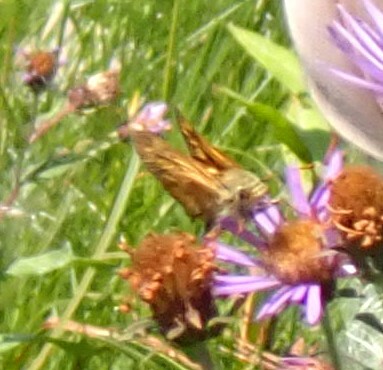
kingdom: Animalia
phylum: Arthropoda
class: Insecta
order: Lepidoptera
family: Hesperiidae
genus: Ochlodes
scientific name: Ochlodes sylvanoides
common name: Woodland skipper
